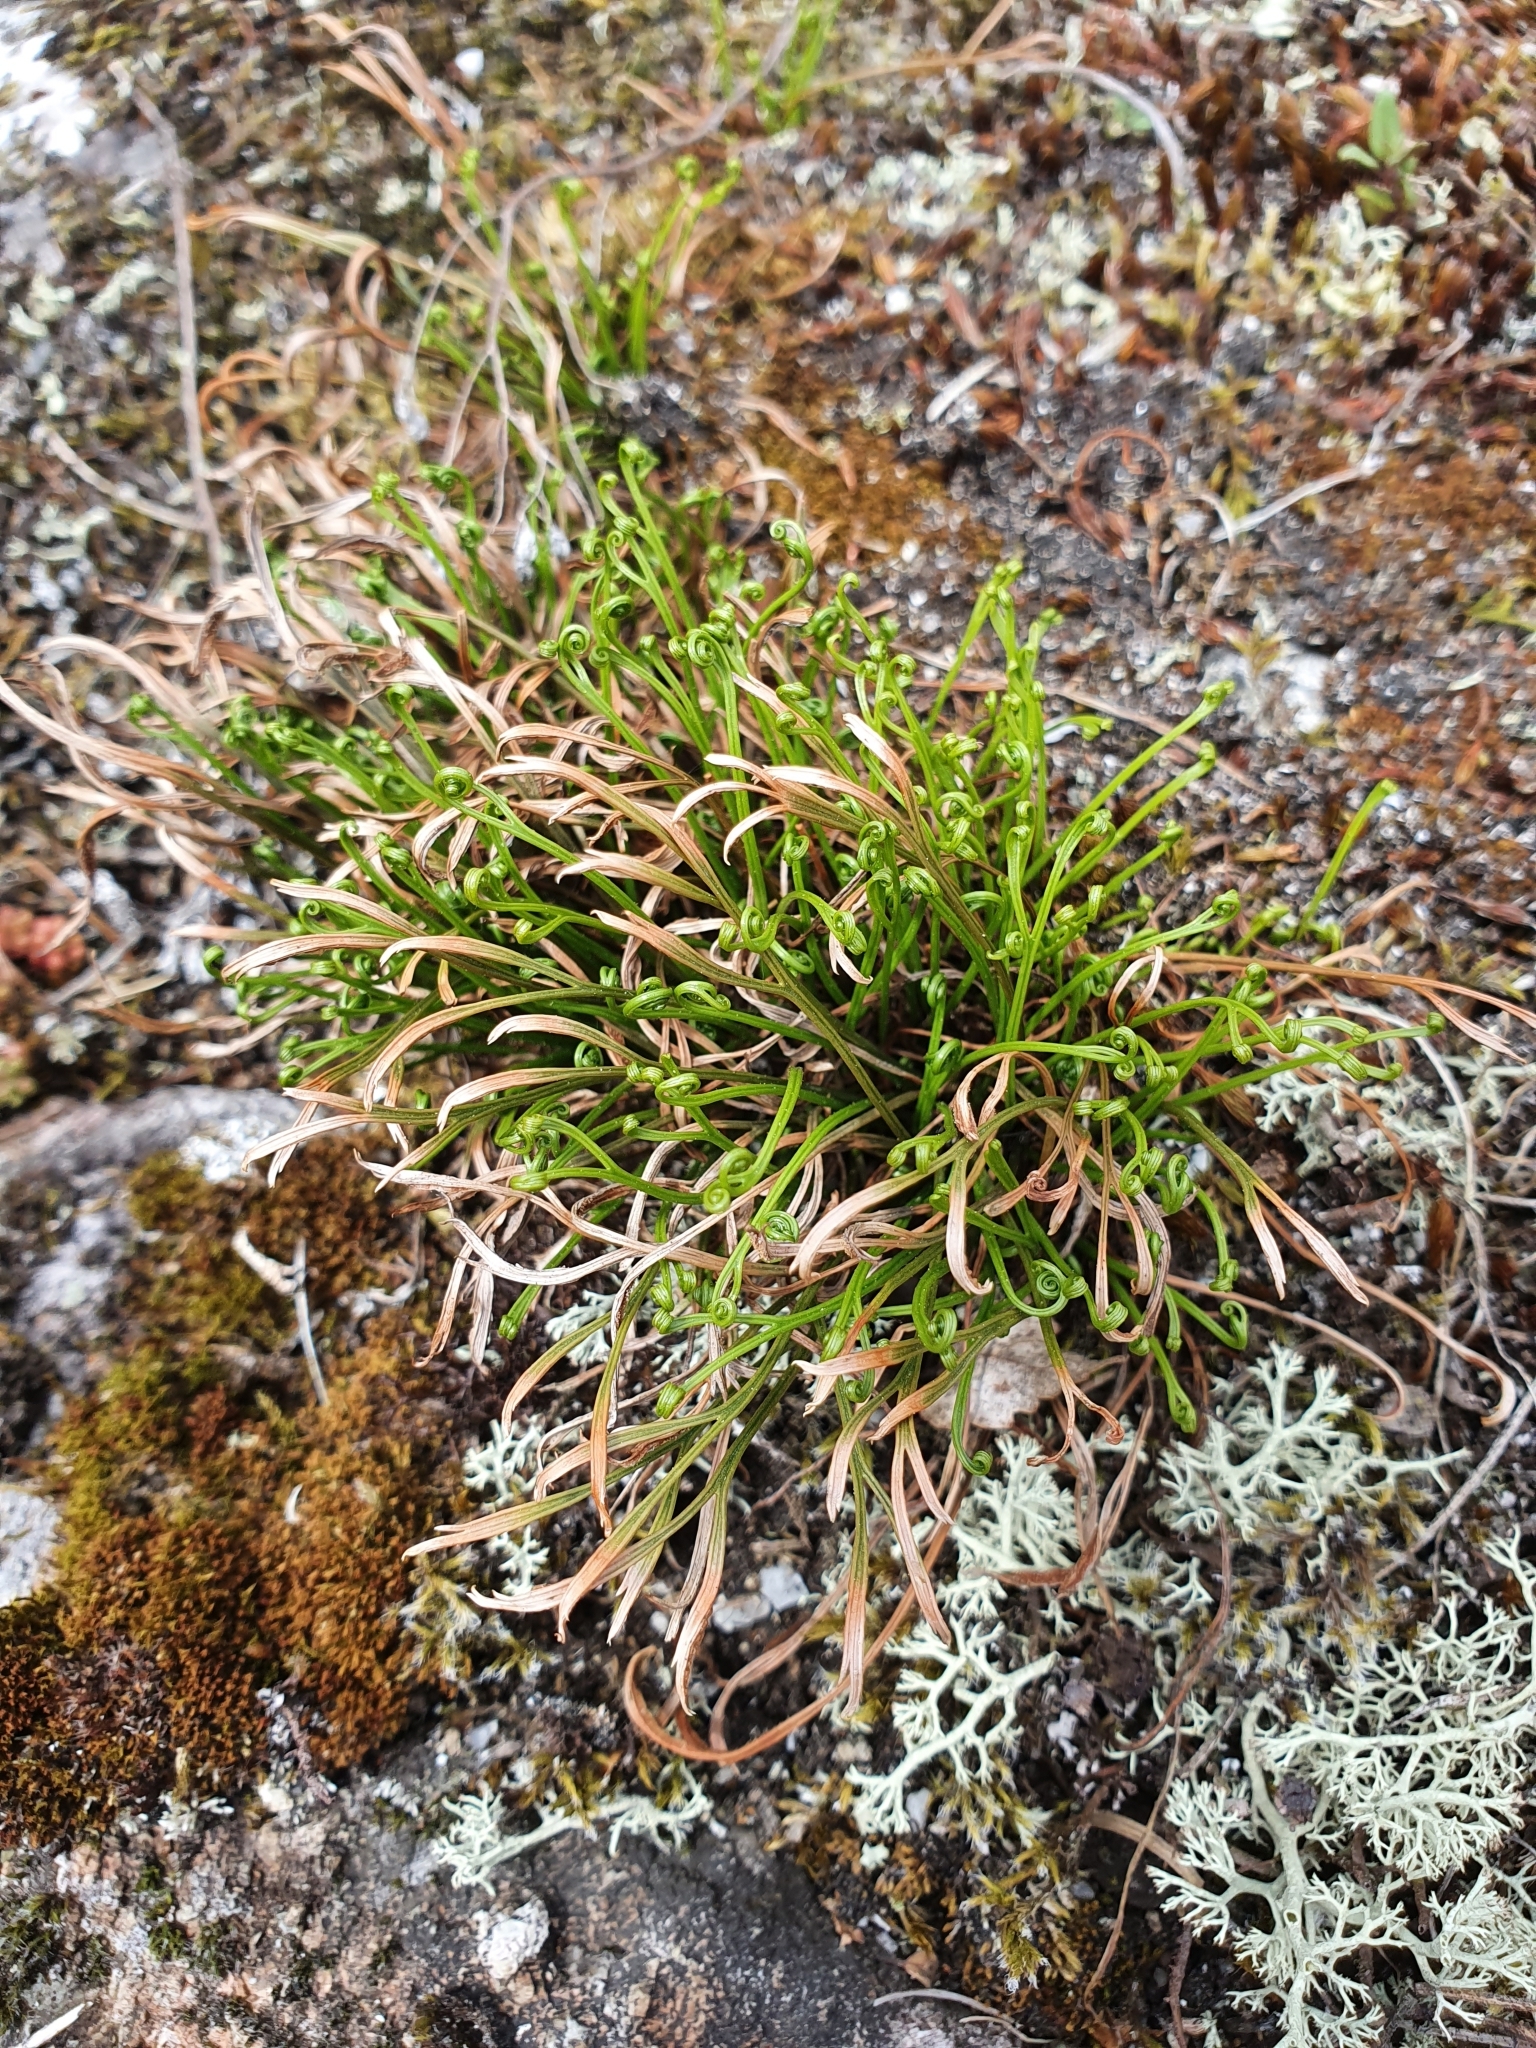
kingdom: Plantae
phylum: Tracheophyta
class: Polypodiopsida
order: Polypodiales
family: Aspleniaceae
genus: Asplenium
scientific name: Asplenium septentrionale
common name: Forked spleenwort
